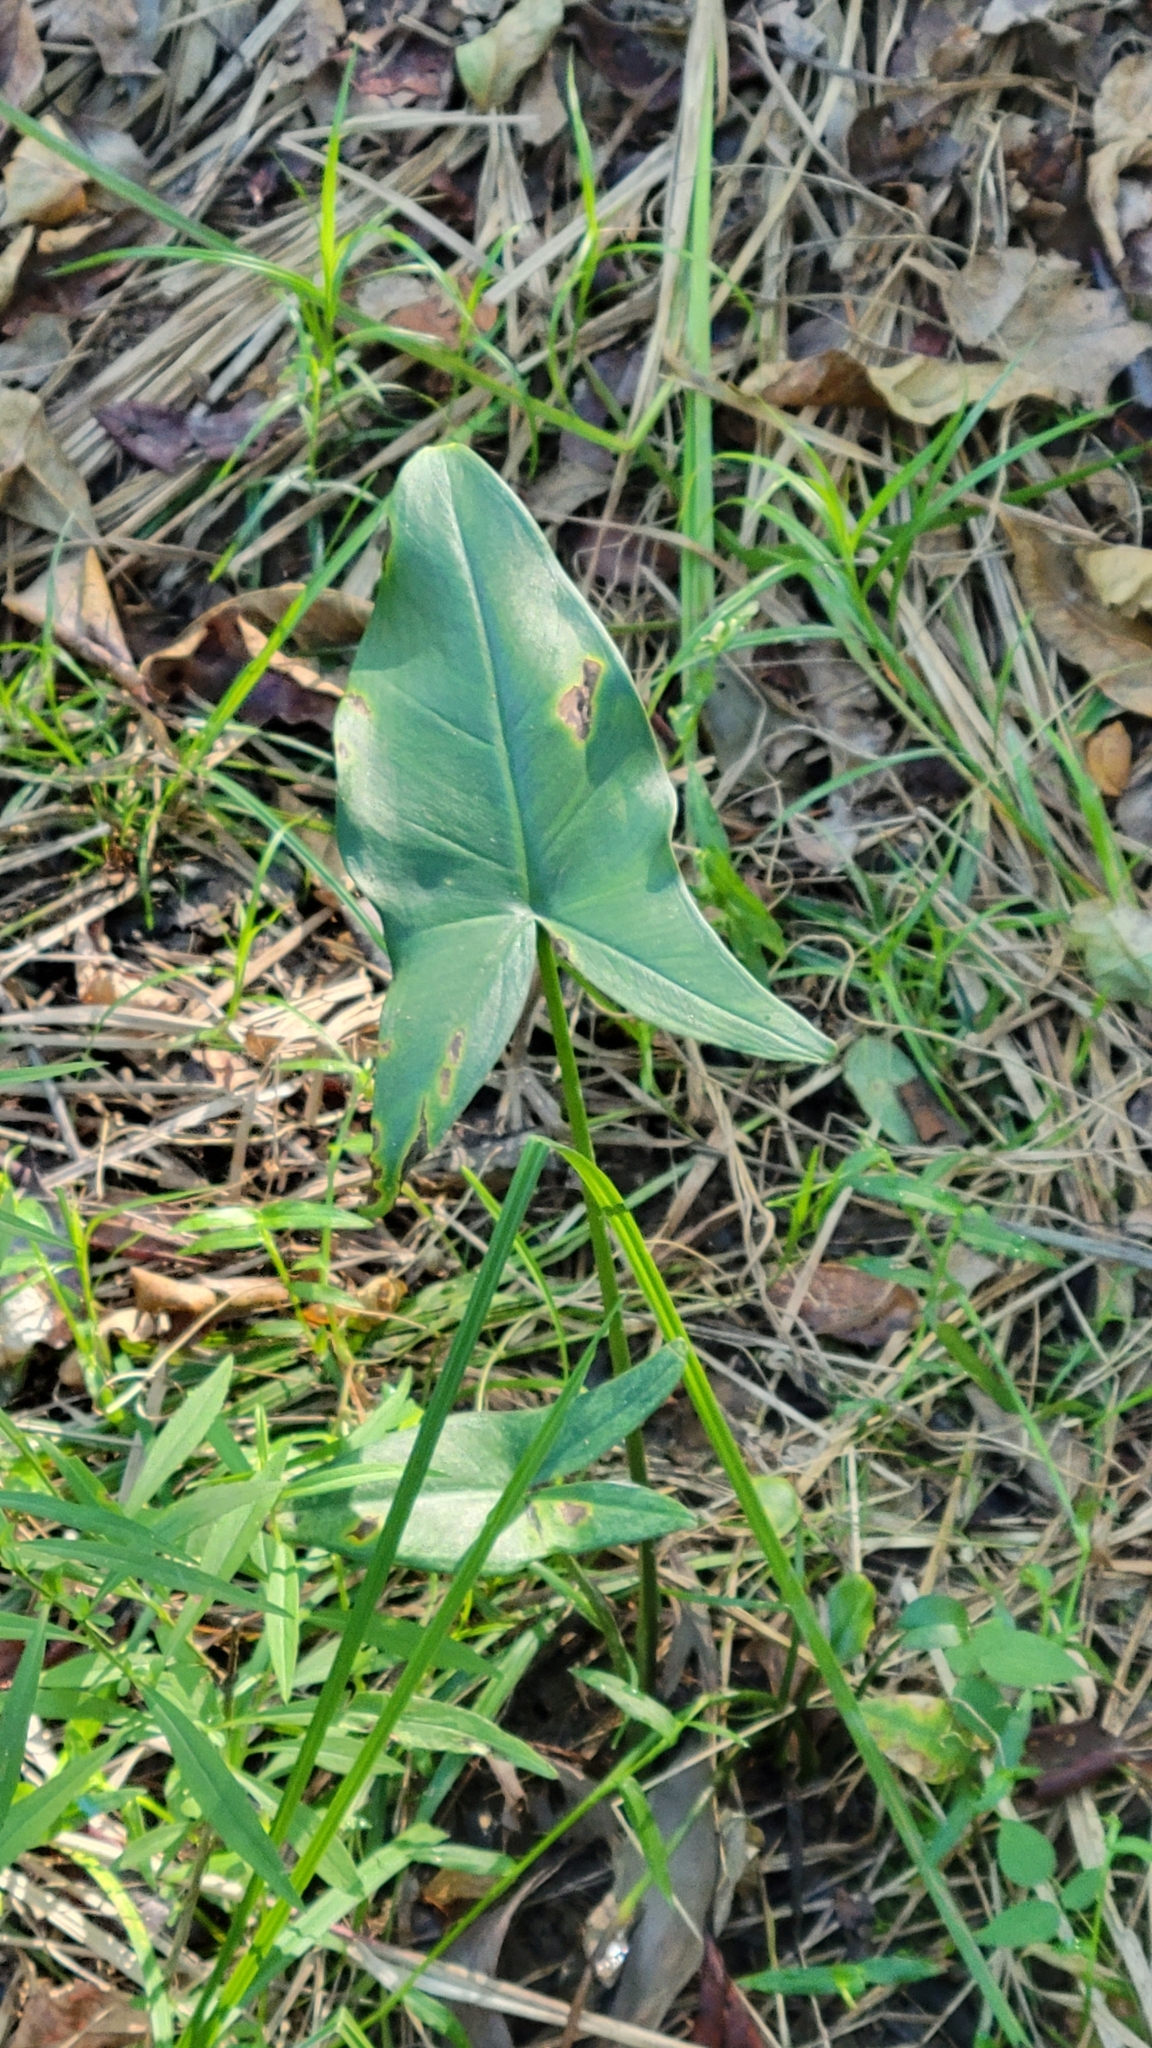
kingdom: Plantae
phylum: Tracheophyta
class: Liliopsida
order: Alismatales
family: Araceae
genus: Peltandra
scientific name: Peltandra virginica
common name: Arrow arum
